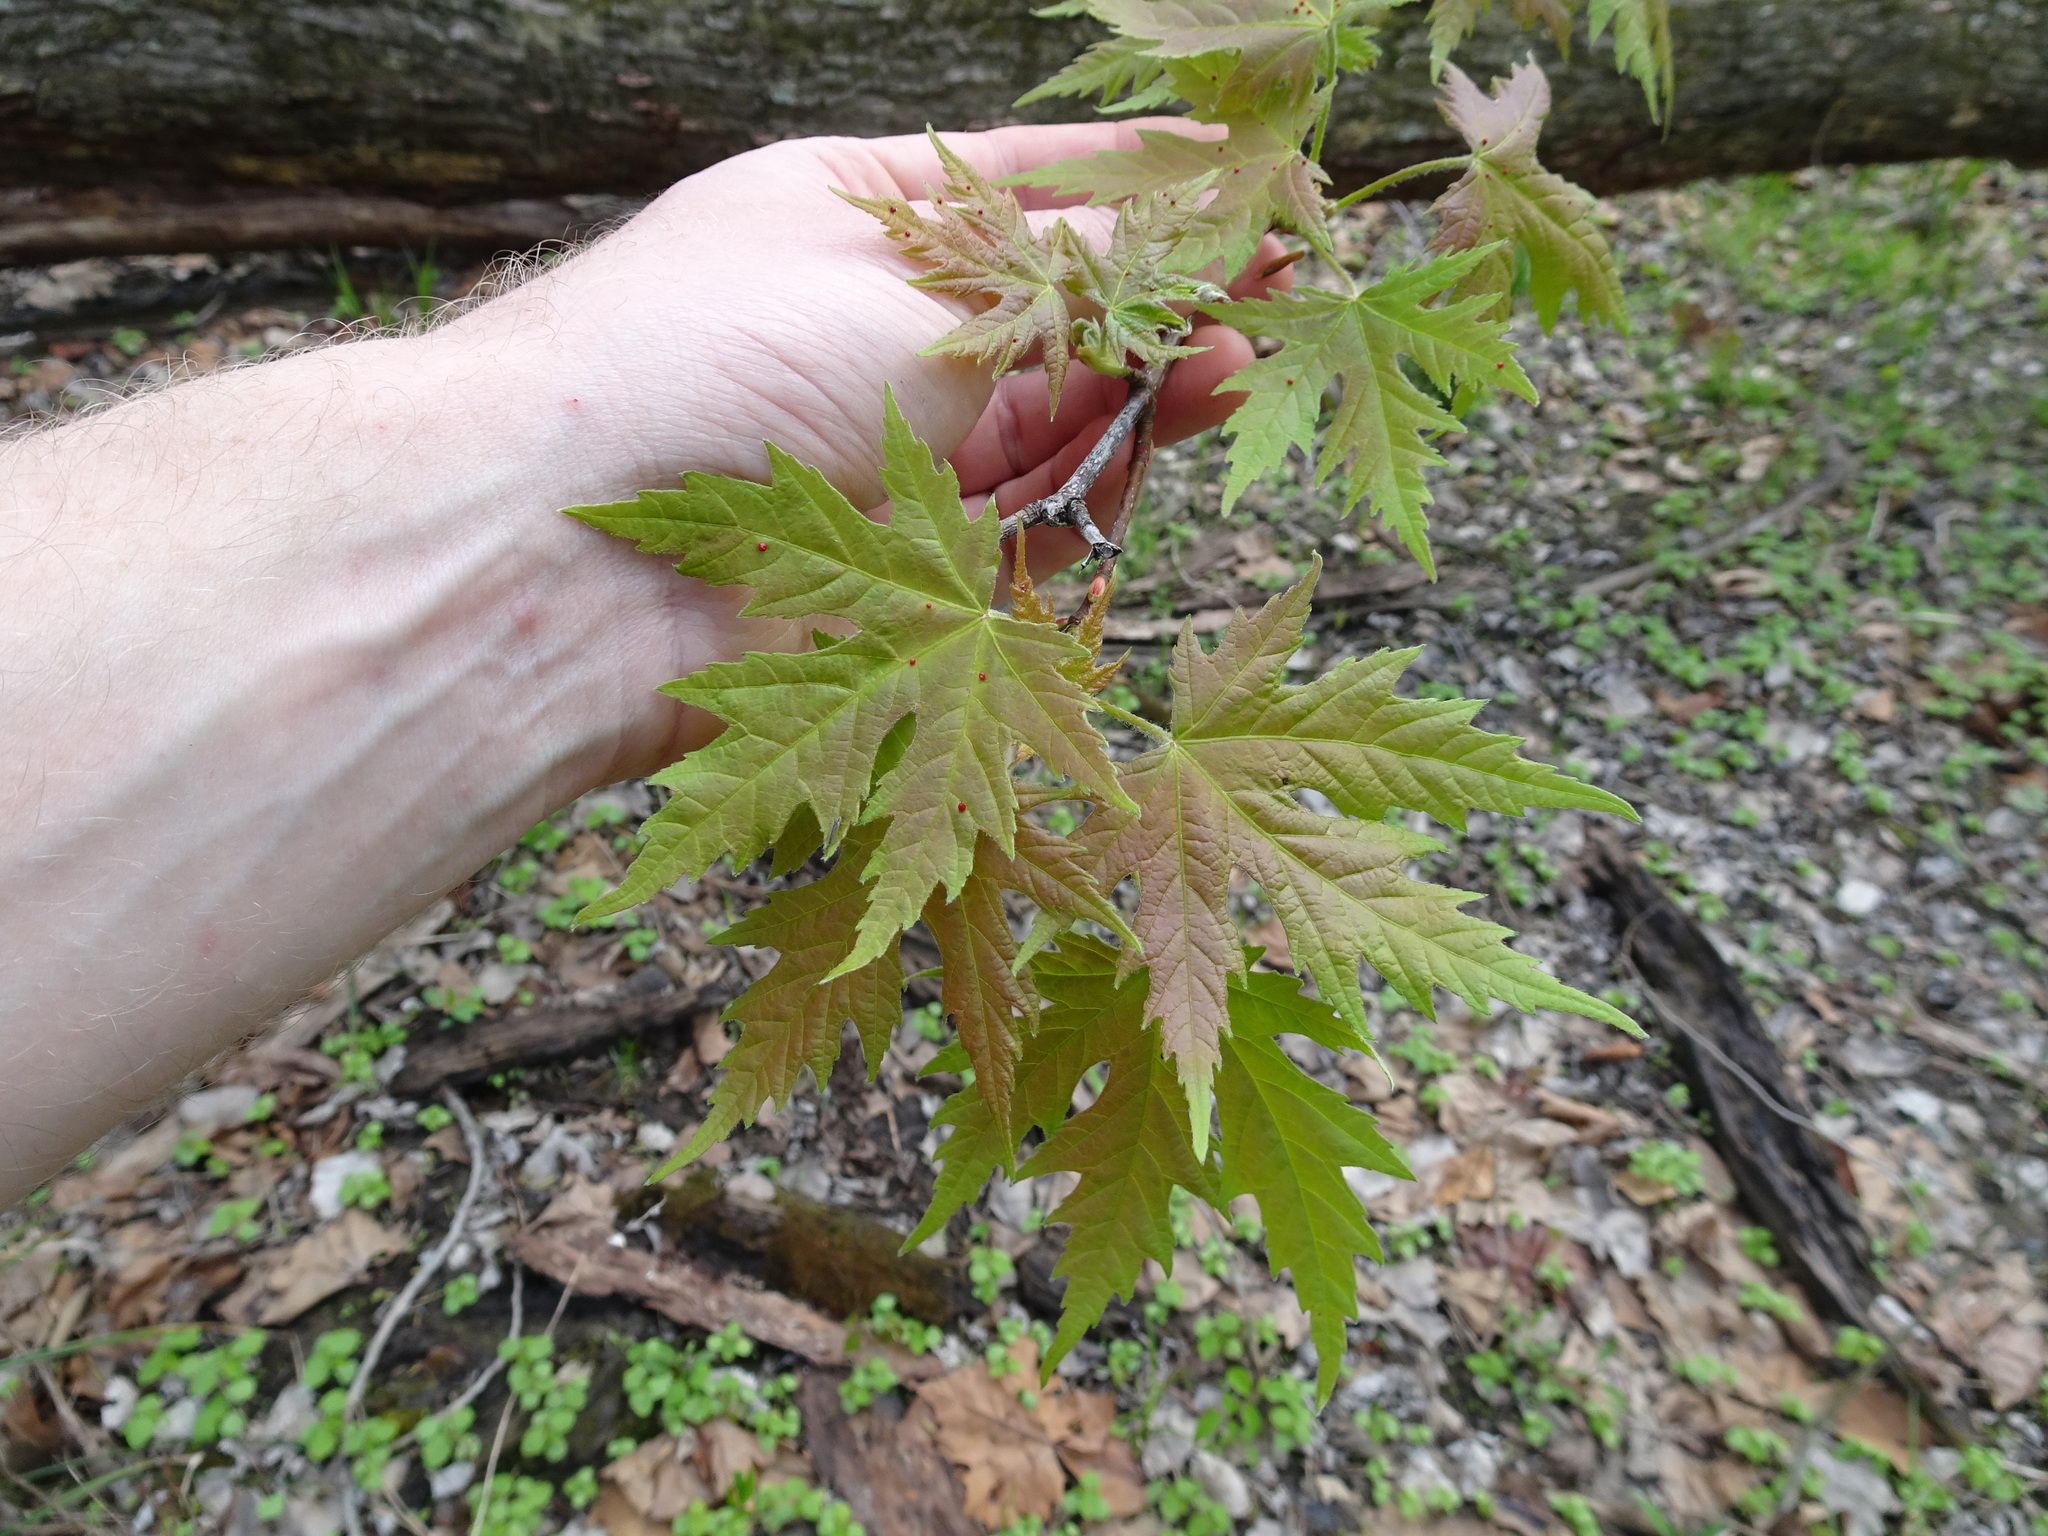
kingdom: Plantae
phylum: Tracheophyta
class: Magnoliopsida
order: Sapindales
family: Sapindaceae
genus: Acer
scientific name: Acer saccharinum
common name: Silver maple
